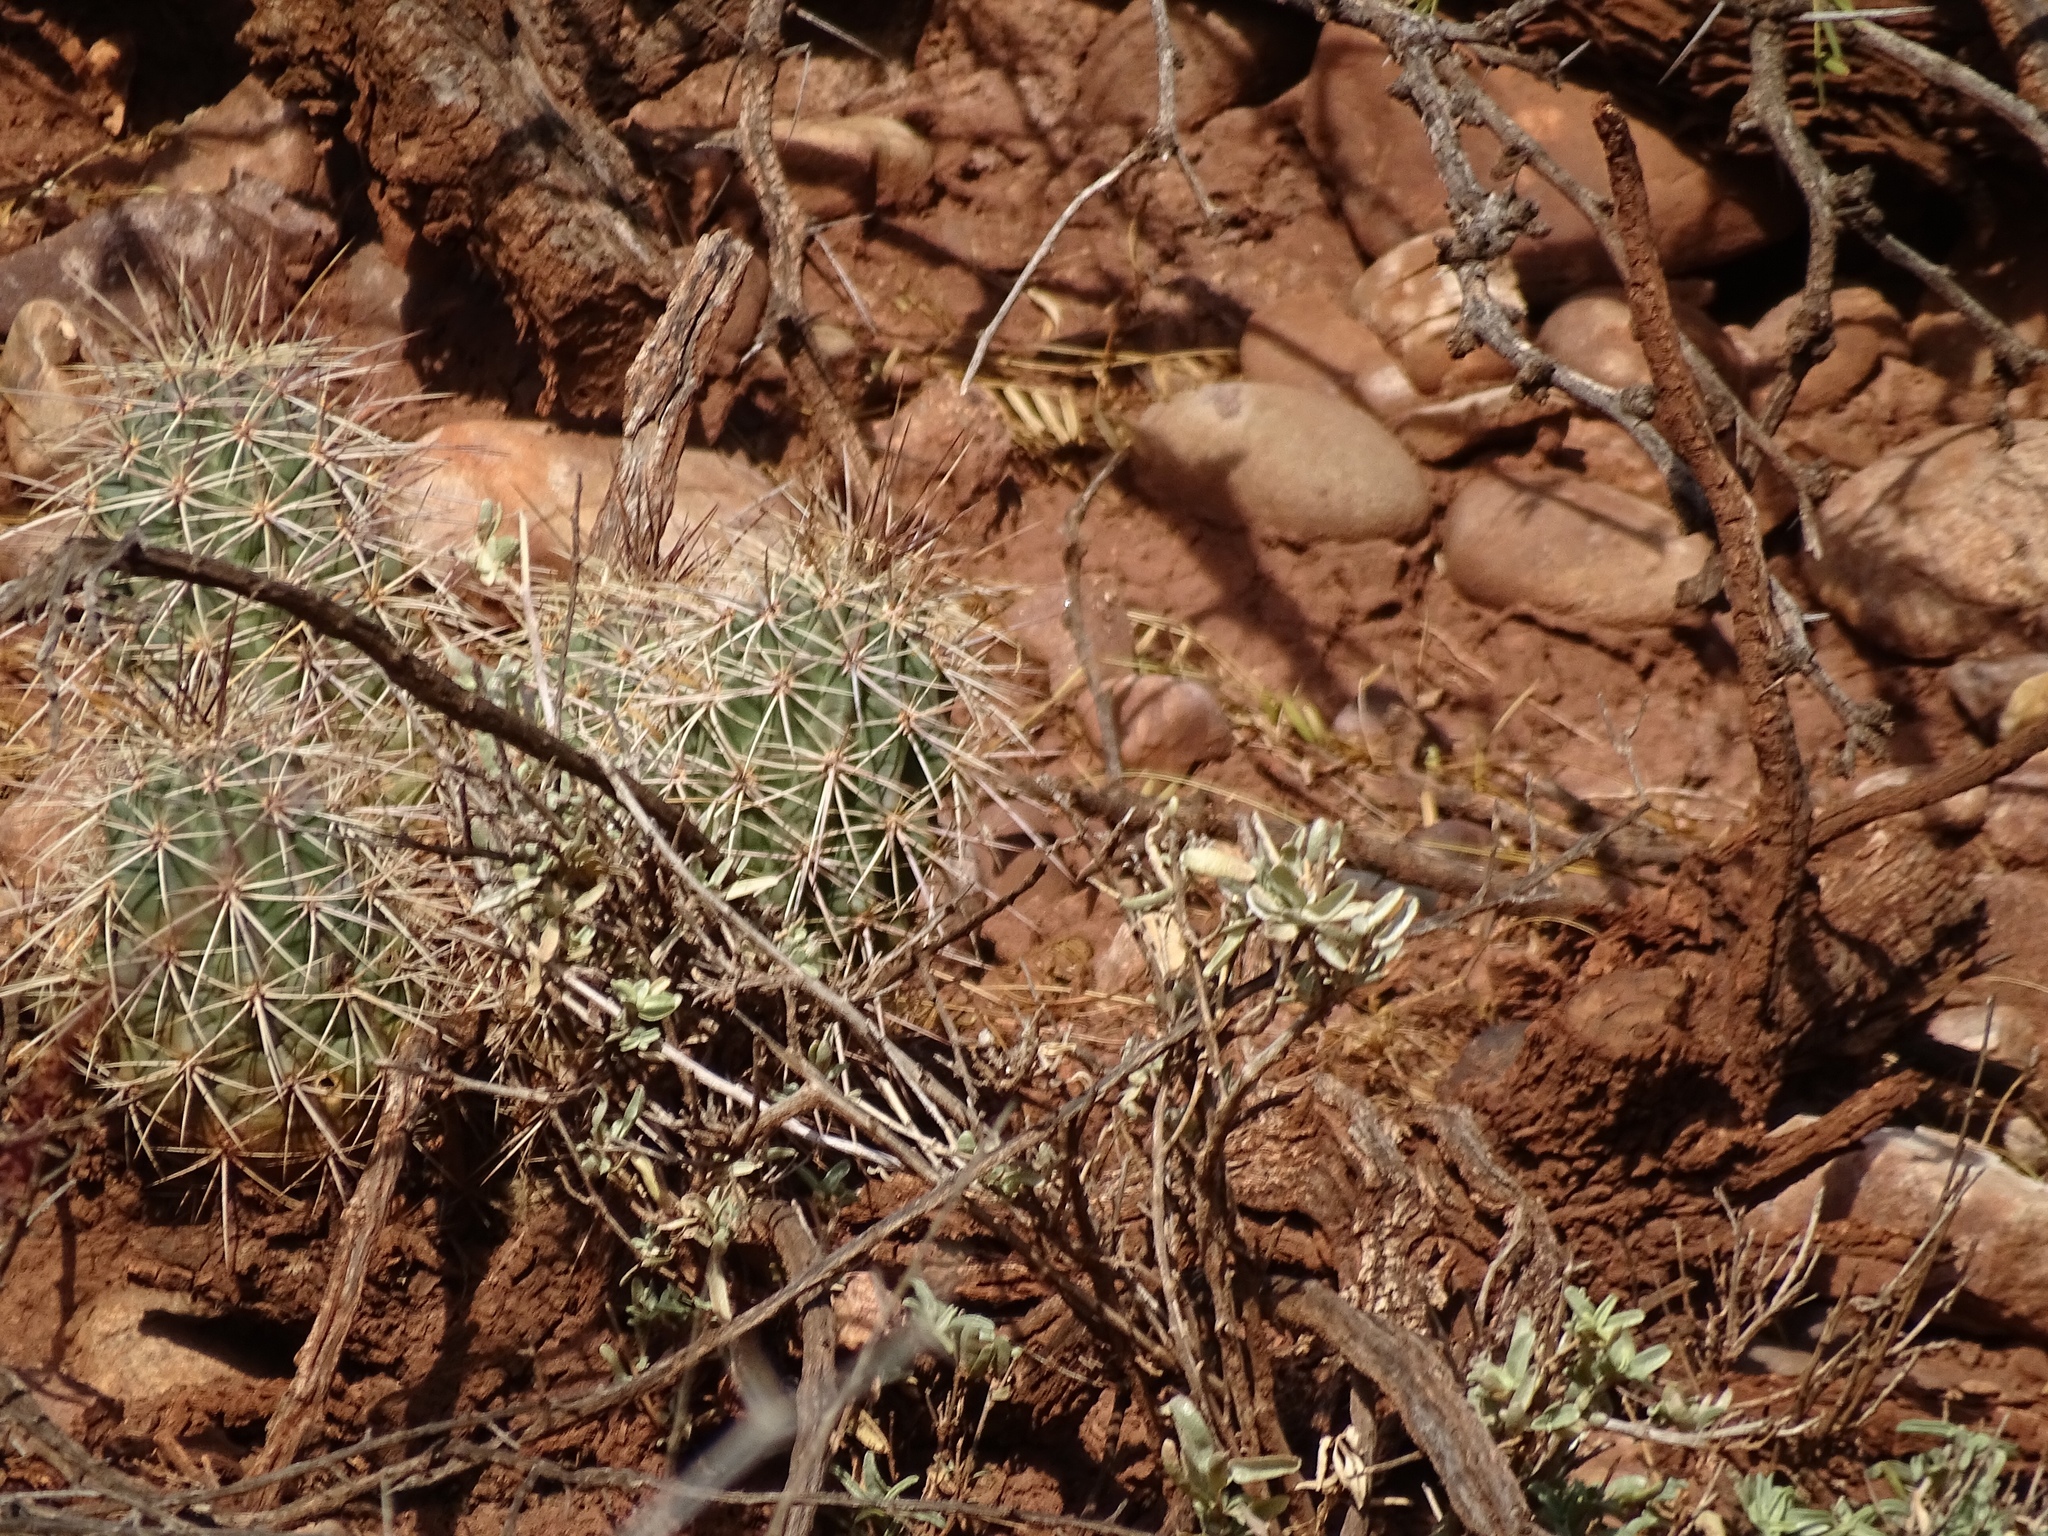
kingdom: Plantae
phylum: Tracheophyta
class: Magnoliopsida
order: Caryophyllales
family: Cactaceae
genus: Echinocereus
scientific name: Echinocereus coccineus
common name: Scarlet hedgehog cactus
